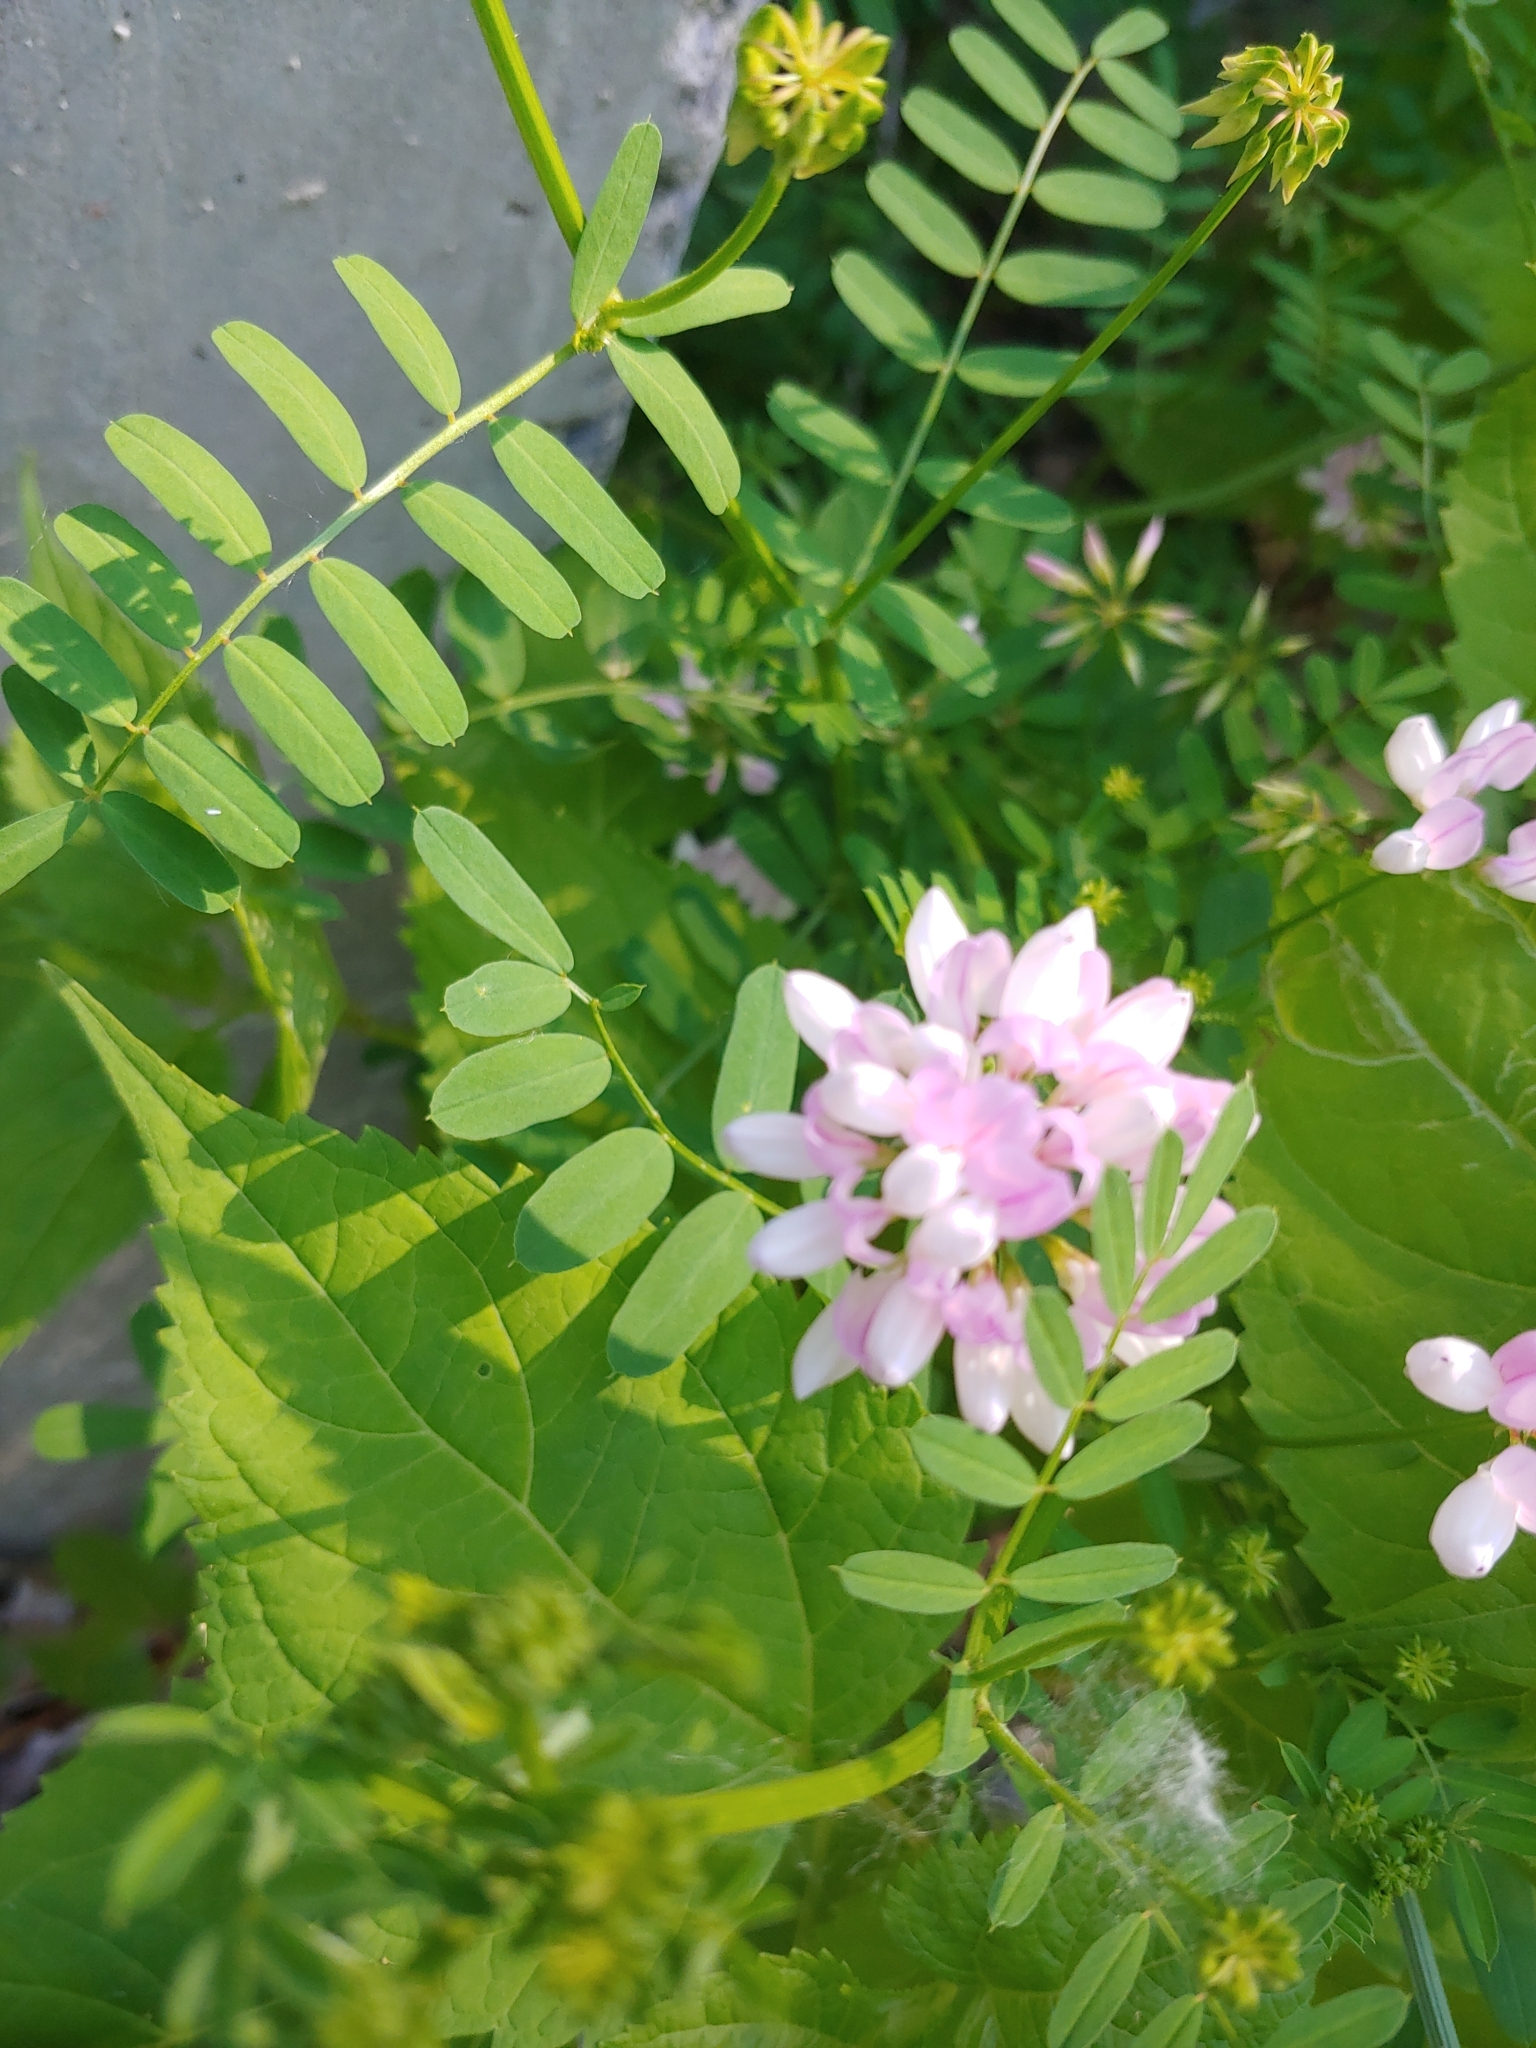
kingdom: Plantae
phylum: Tracheophyta
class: Magnoliopsida
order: Fabales
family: Fabaceae
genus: Coronilla
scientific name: Coronilla varia
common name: Crownvetch
